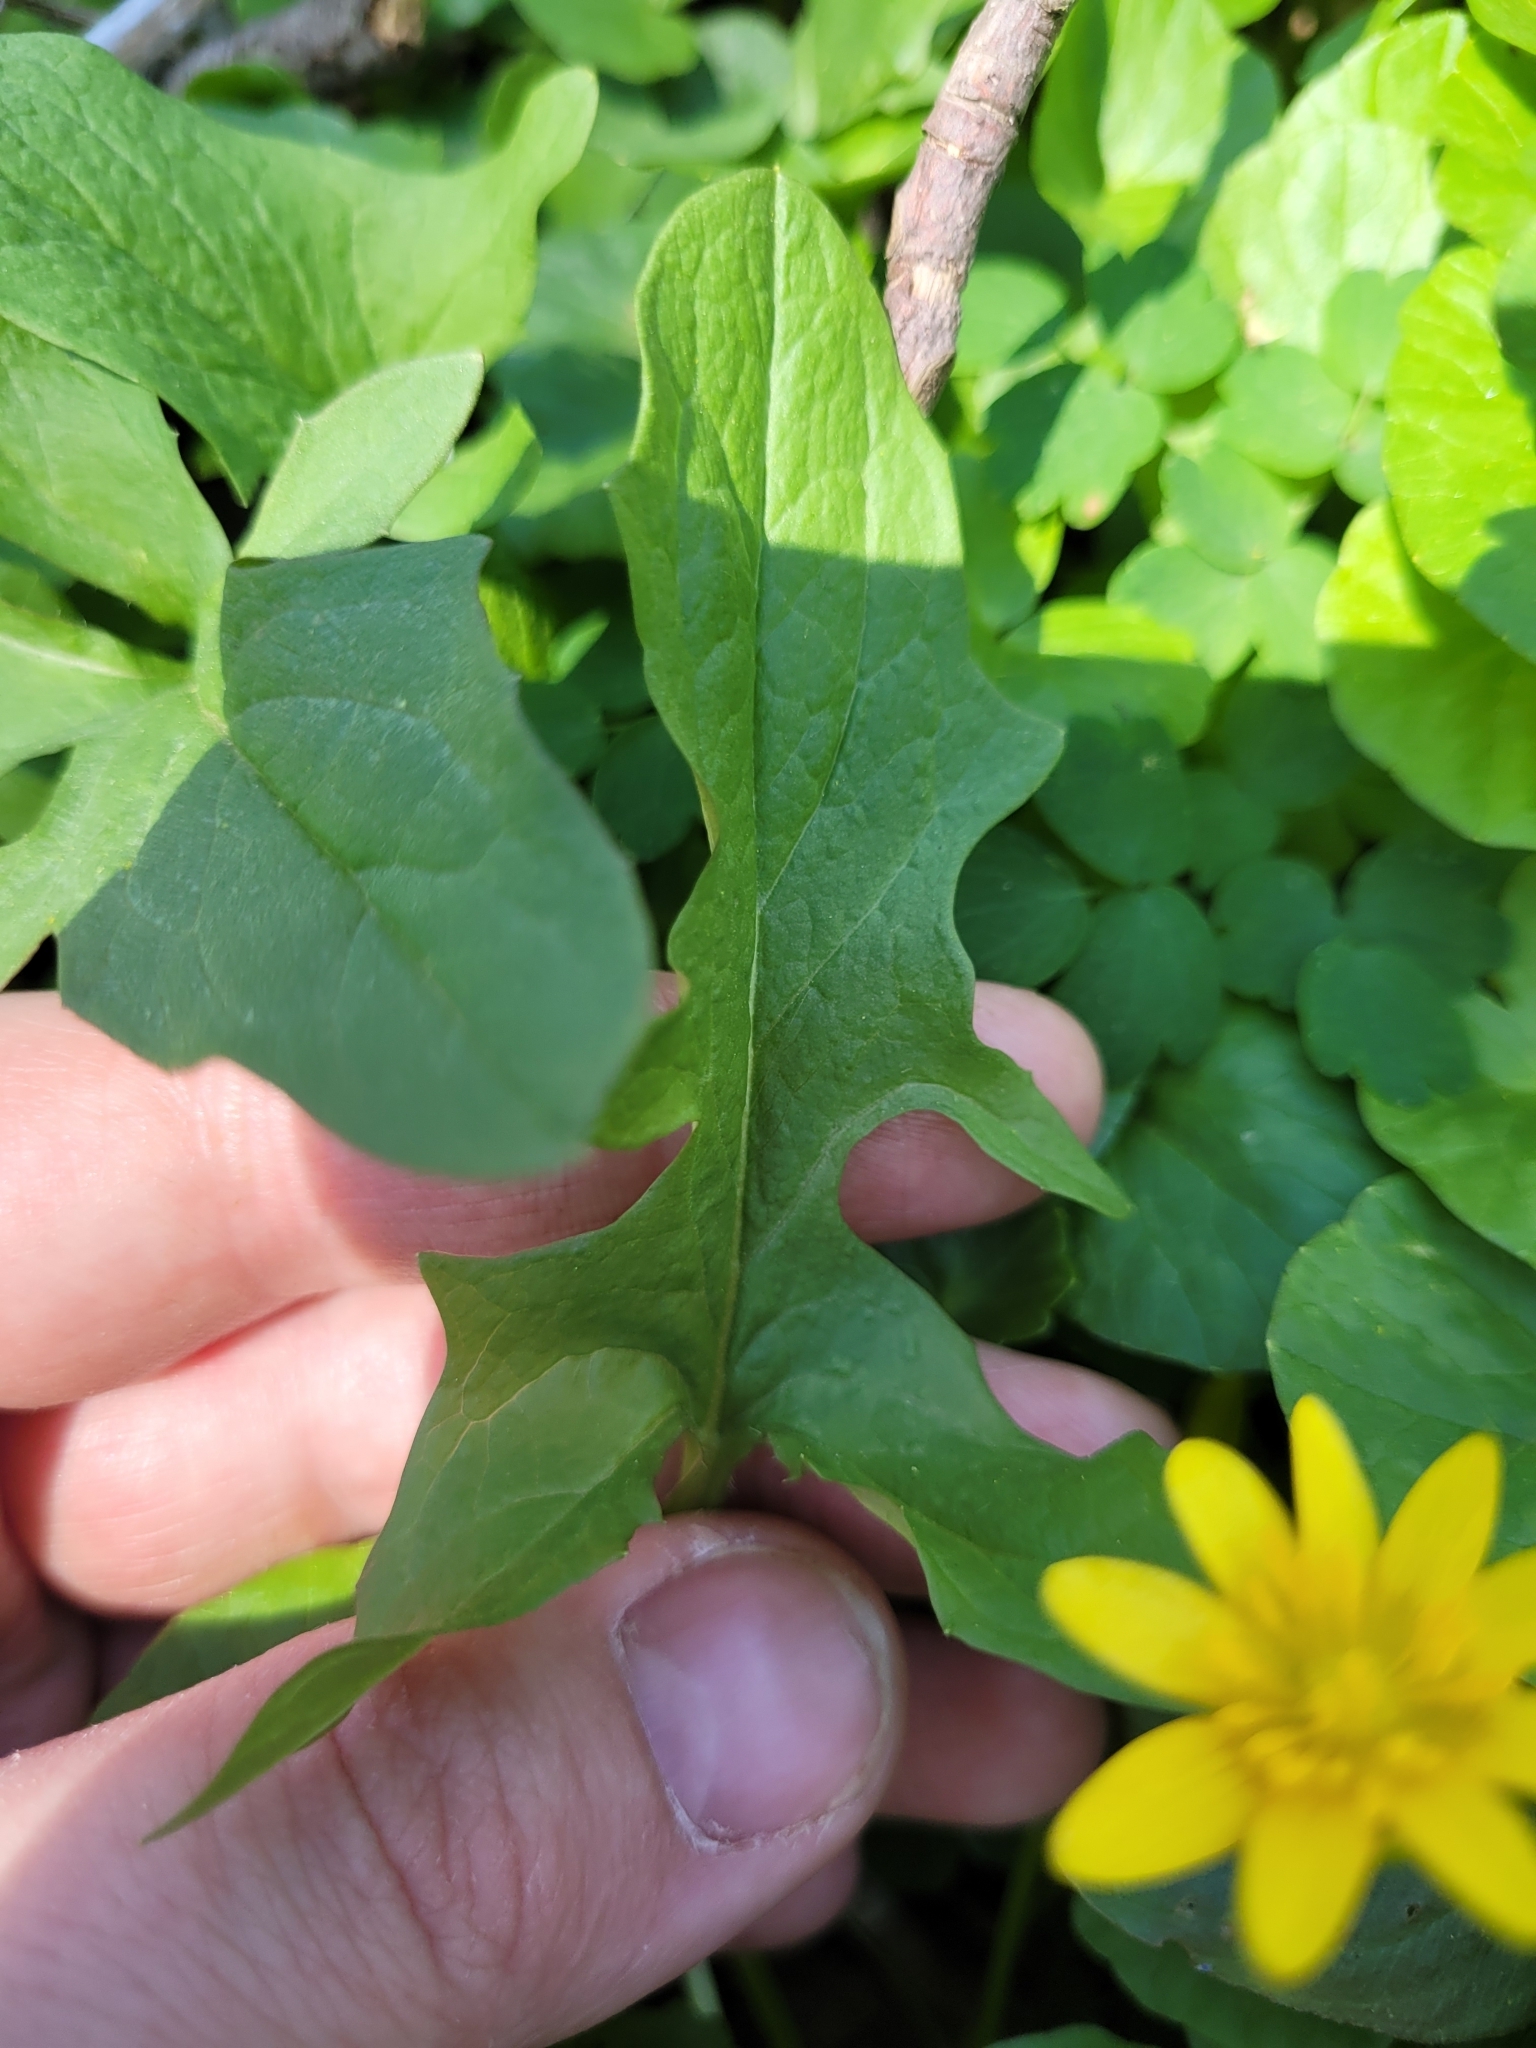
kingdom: Plantae
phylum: Tracheophyta
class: Magnoliopsida
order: Asterales
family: Asteraceae
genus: Nabalus
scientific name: Nabalus crepidineus
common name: Nodding rattlesnakeroot
